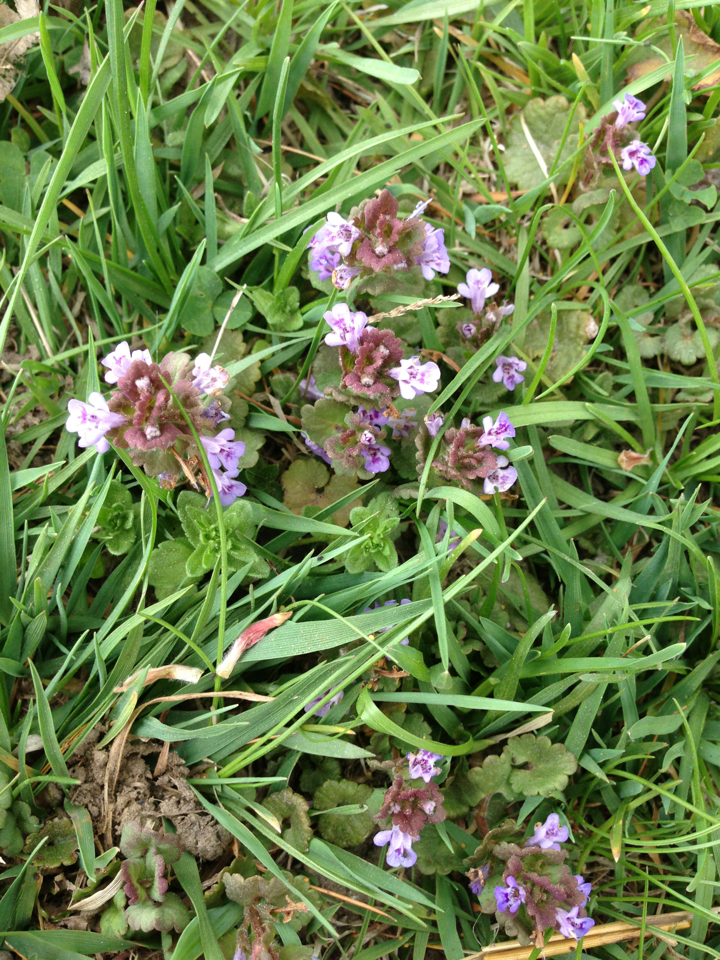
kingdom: Plantae
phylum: Tracheophyta
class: Magnoliopsida
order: Lamiales
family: Lamiaceae
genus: Glechoma
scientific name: Glechoma hederacea
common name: Ground ivy
